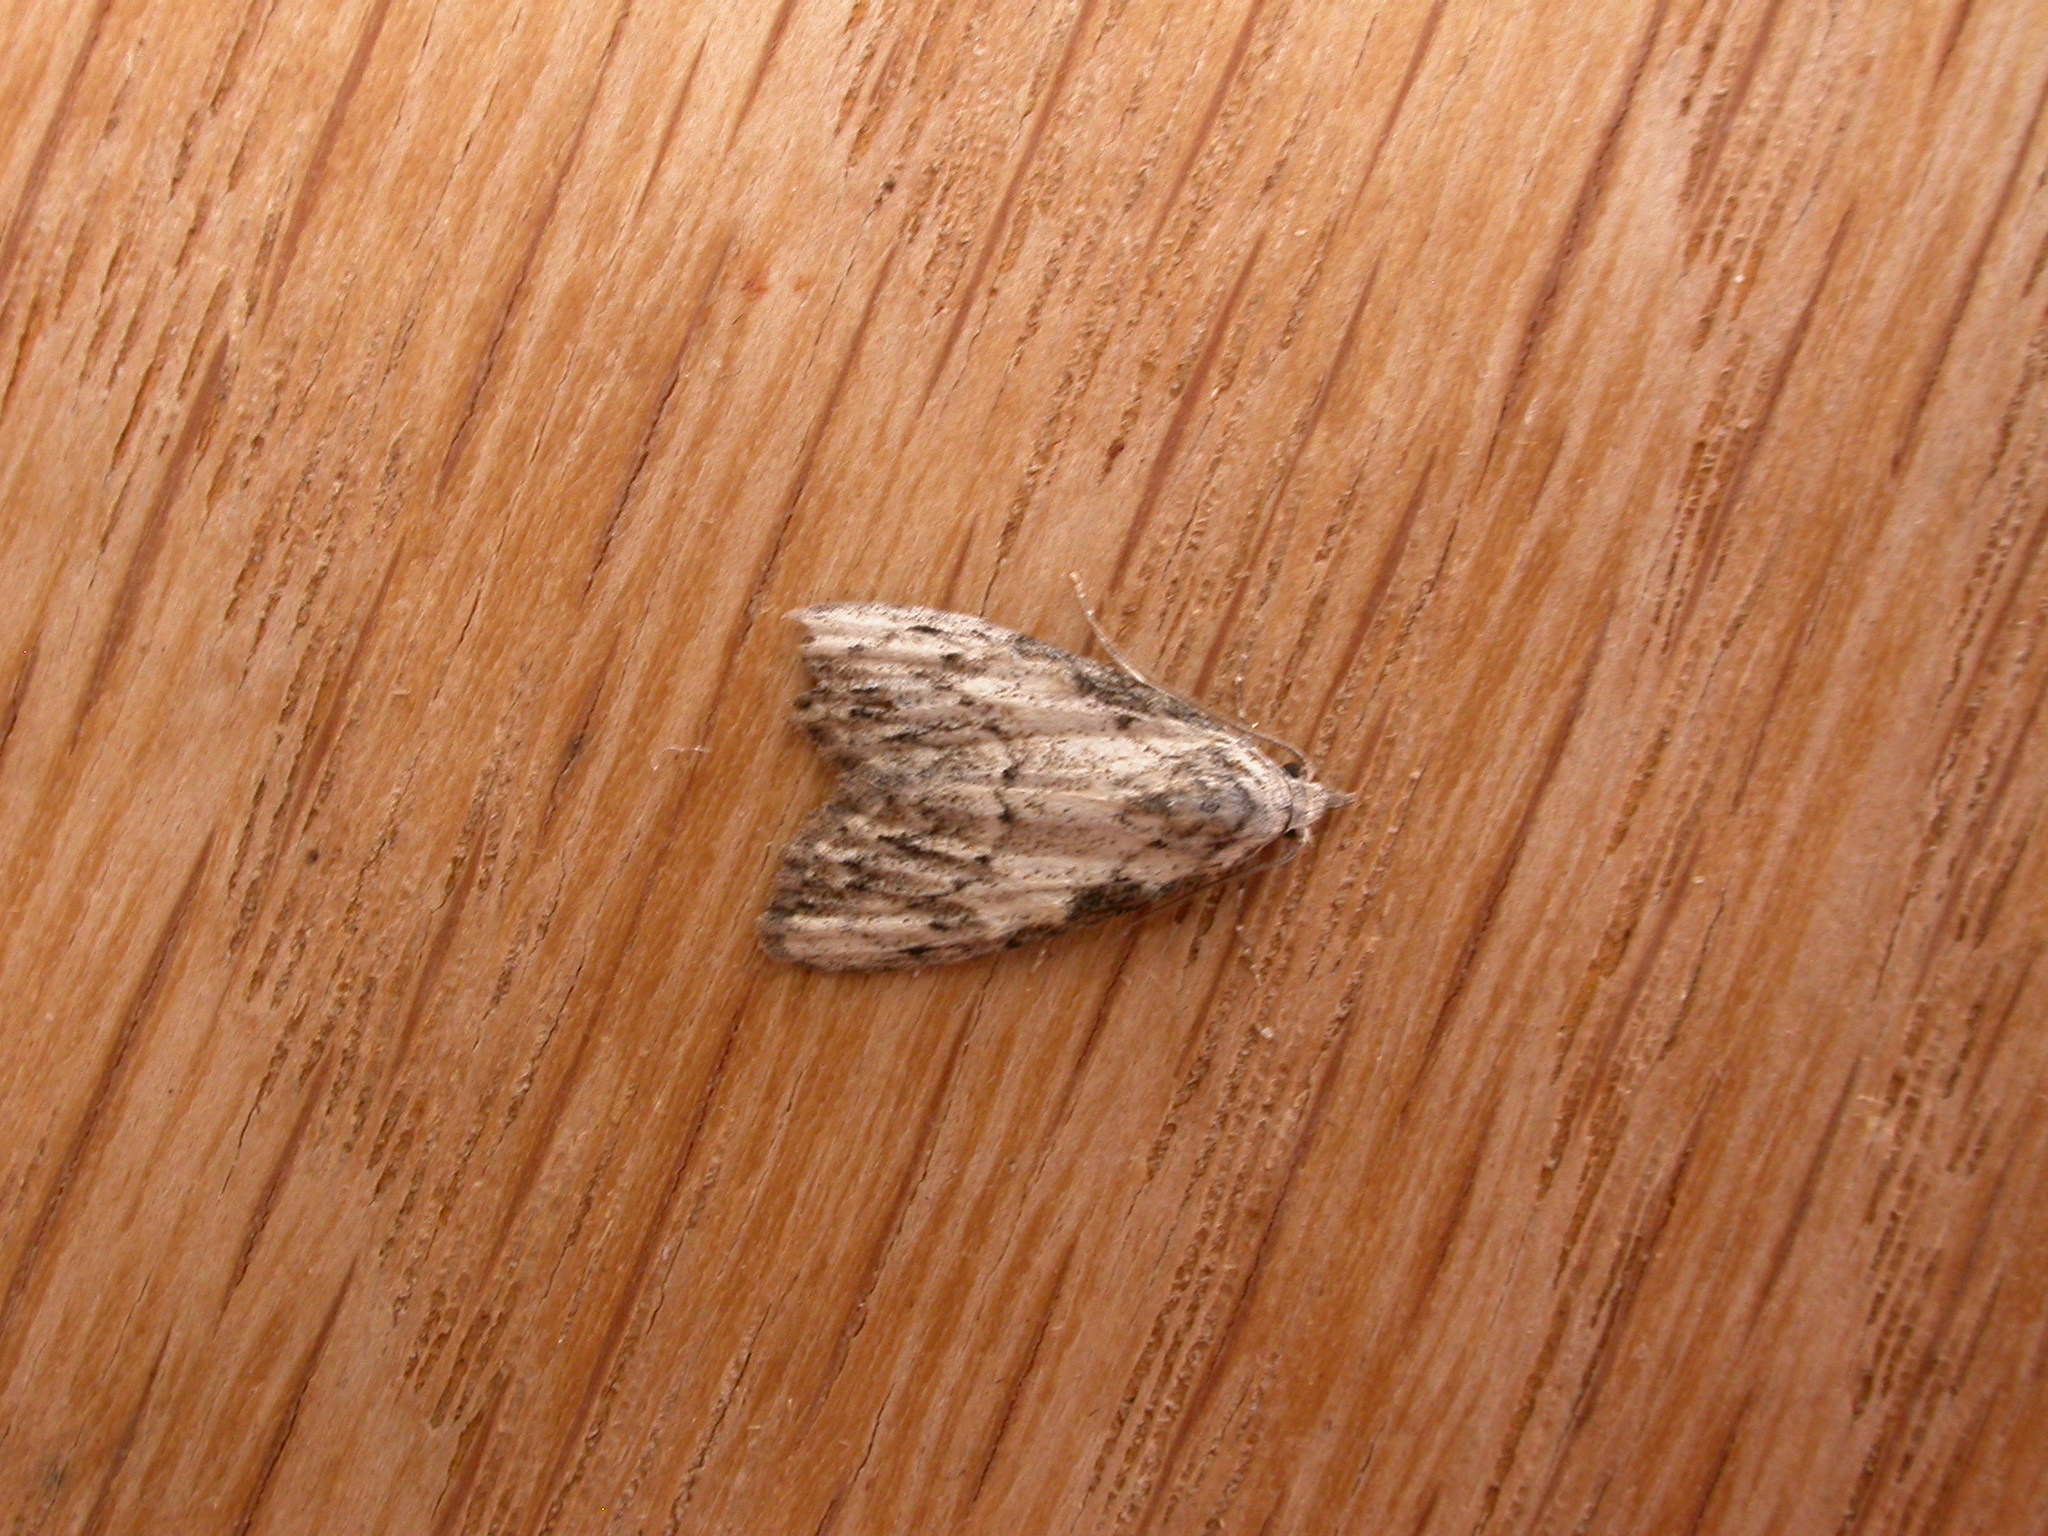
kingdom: Animalia
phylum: Arthropoda
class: Insecta
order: Lepidoptera
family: Nolidae
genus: Nola
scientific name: Nola pleurochorda
